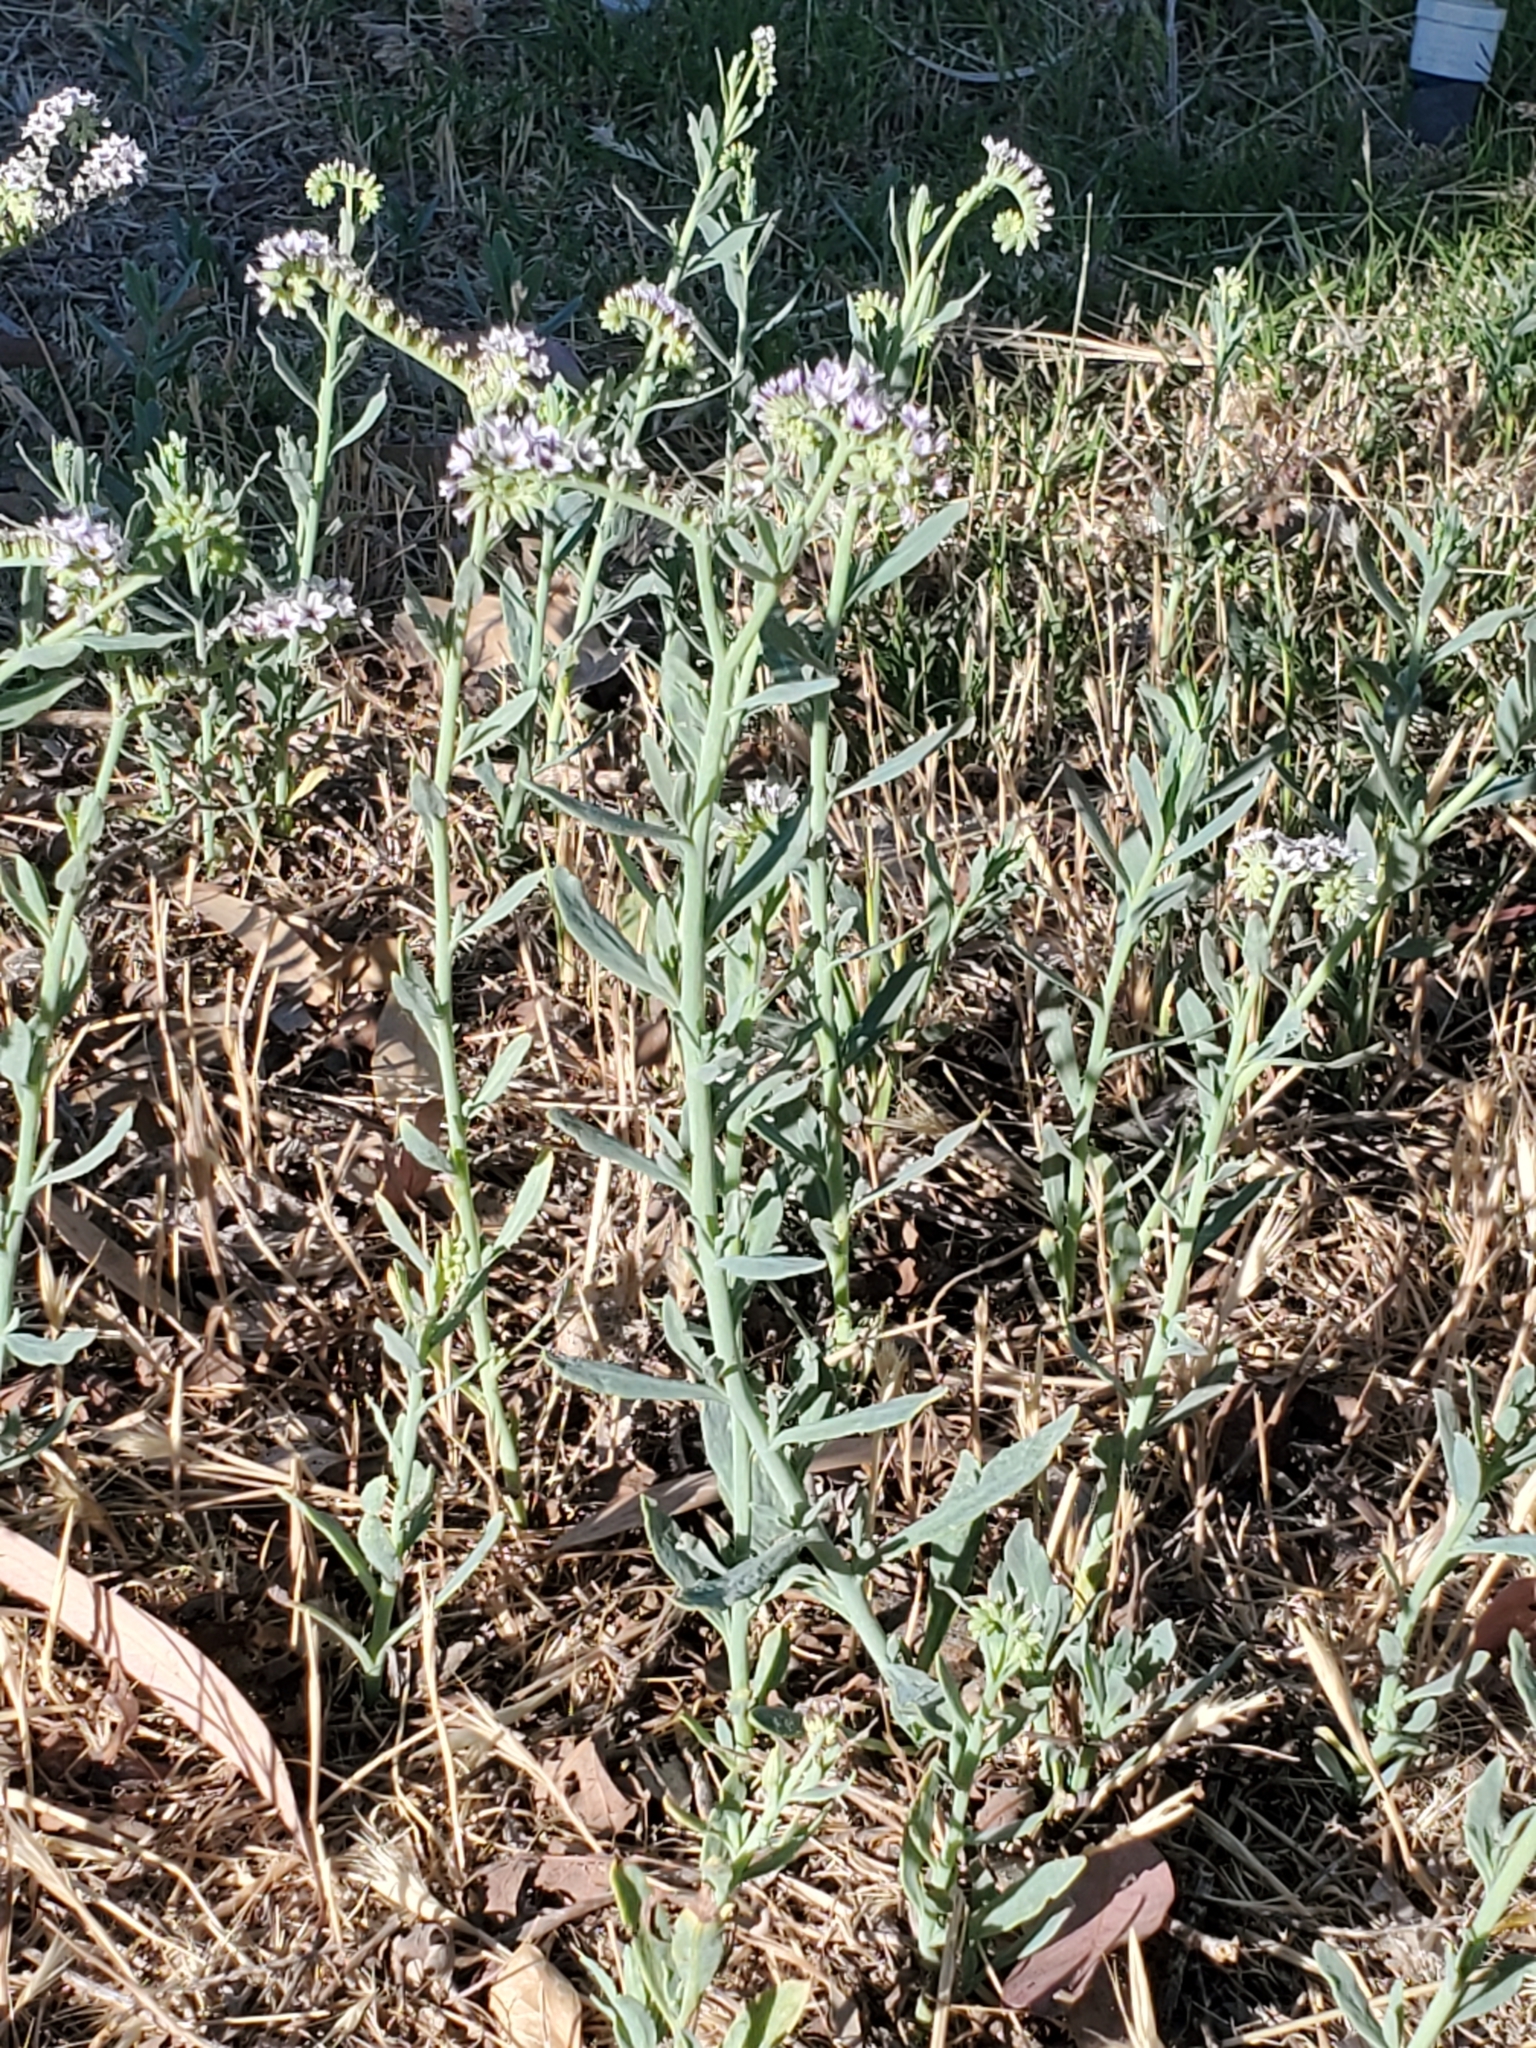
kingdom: Plantae
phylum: Tracheophyta
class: Magnoliopsida
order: Boraginales
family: Heliotropiaceae
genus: Heliotropium
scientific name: Heliotropium curassavicum
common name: Seaside heliotrope
